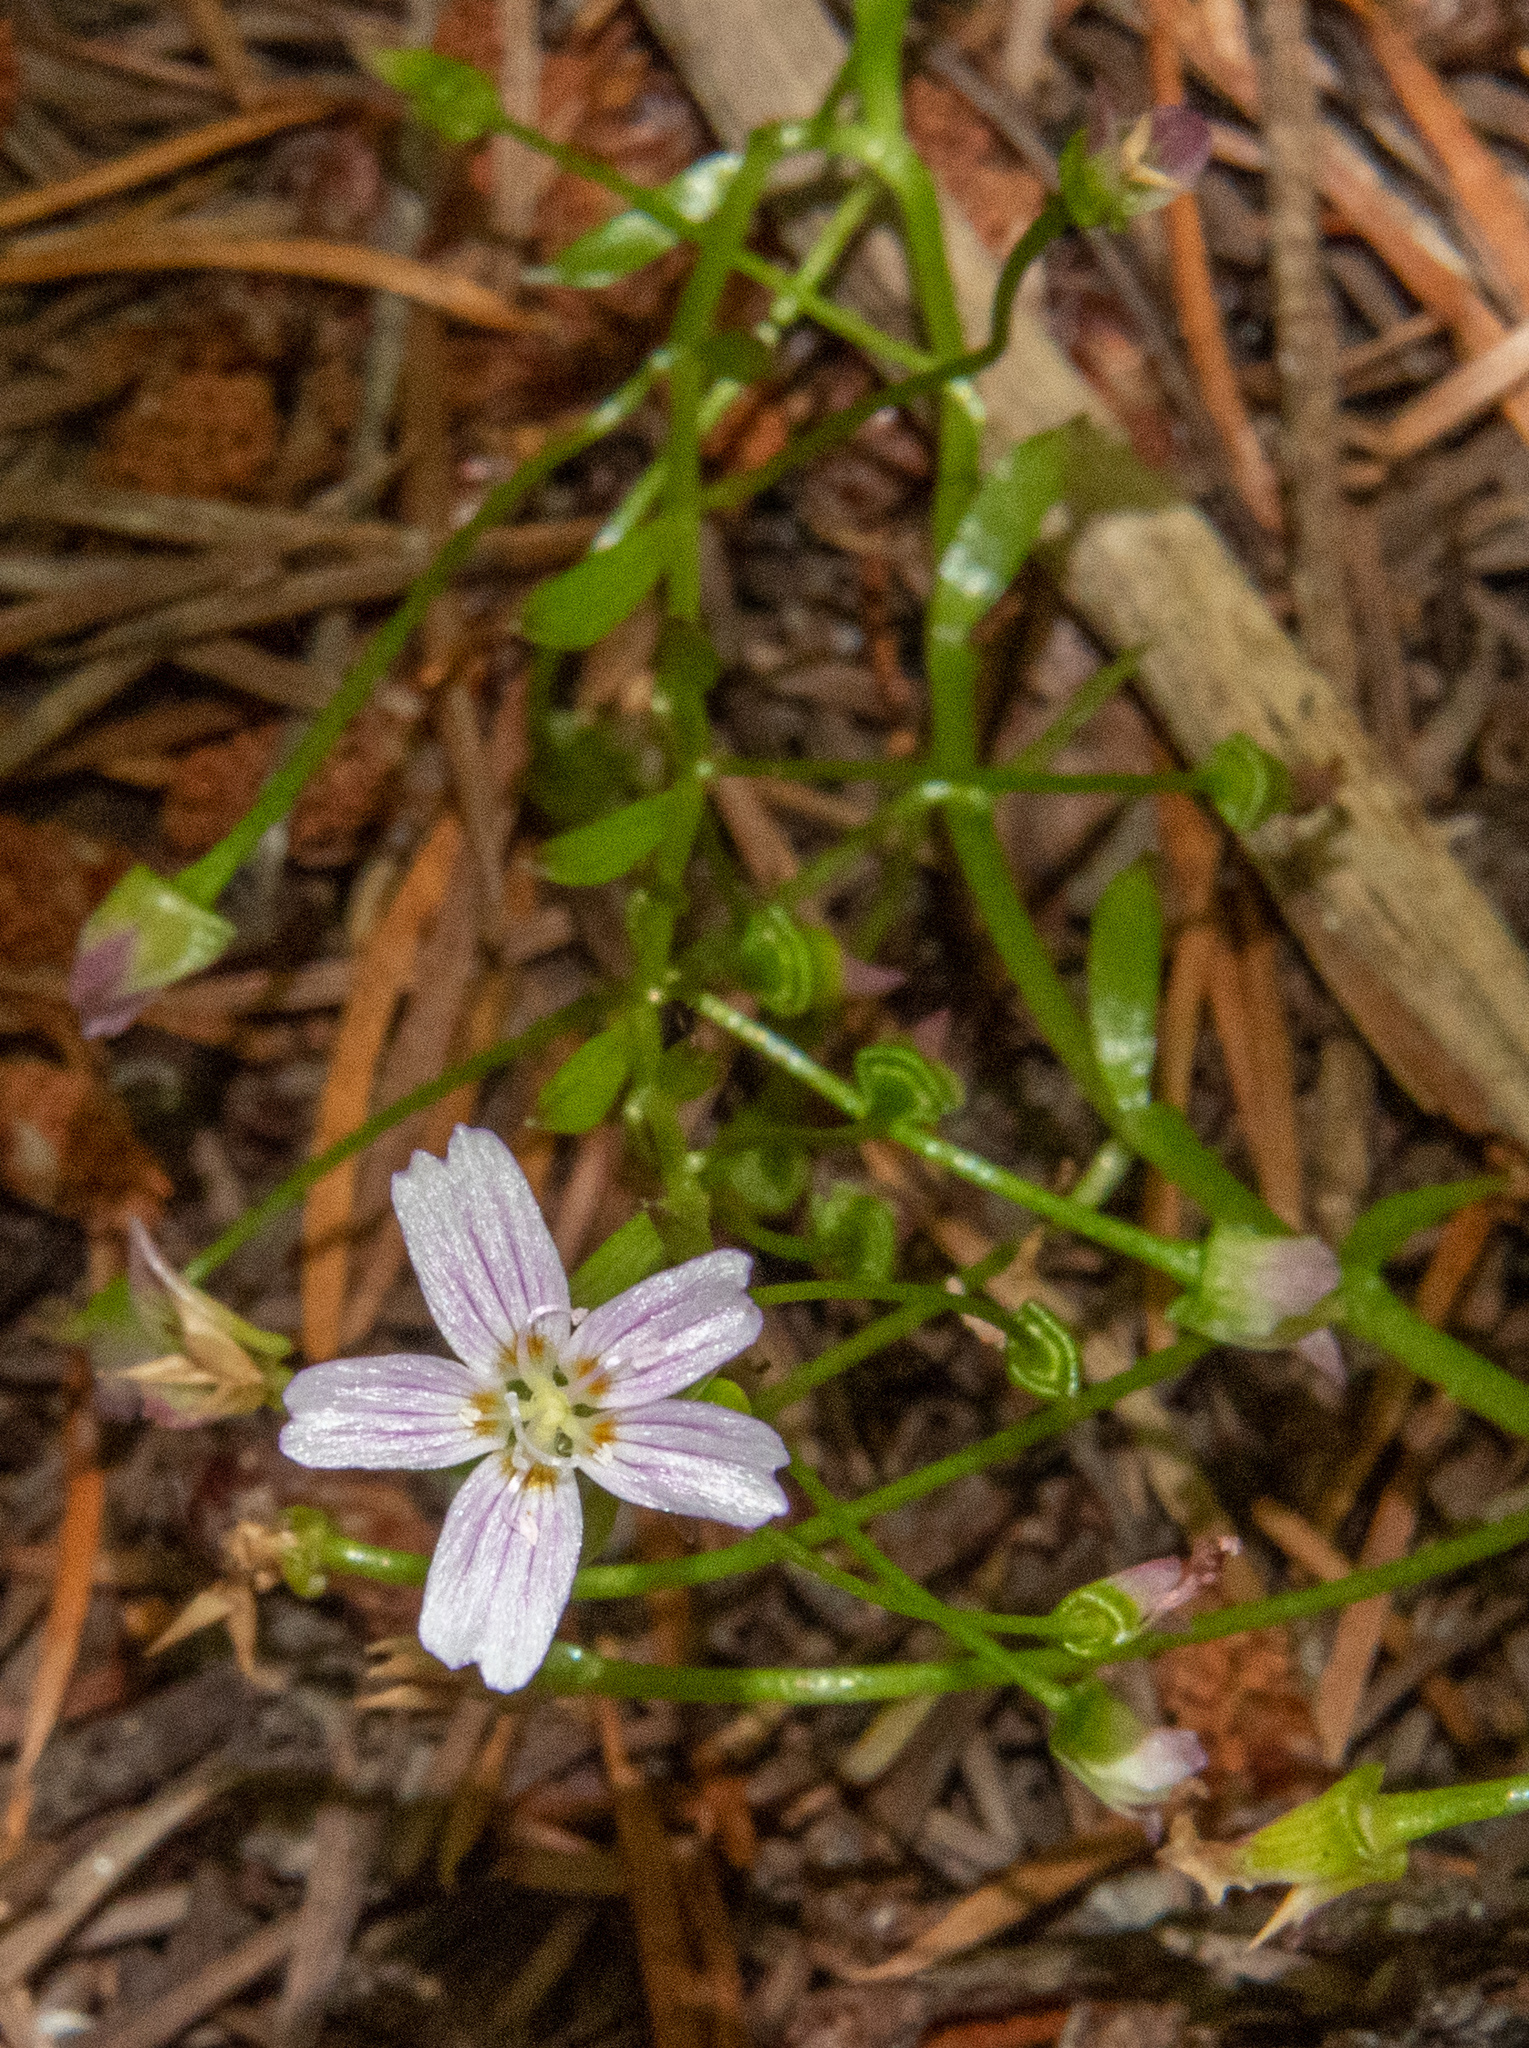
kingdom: Plantae
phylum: Tracheophyta
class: Magnoliopsida
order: Caryophyllales
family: Montiaceae
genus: Claytonia
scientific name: Claytonia sibirica
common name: Pink purslane
